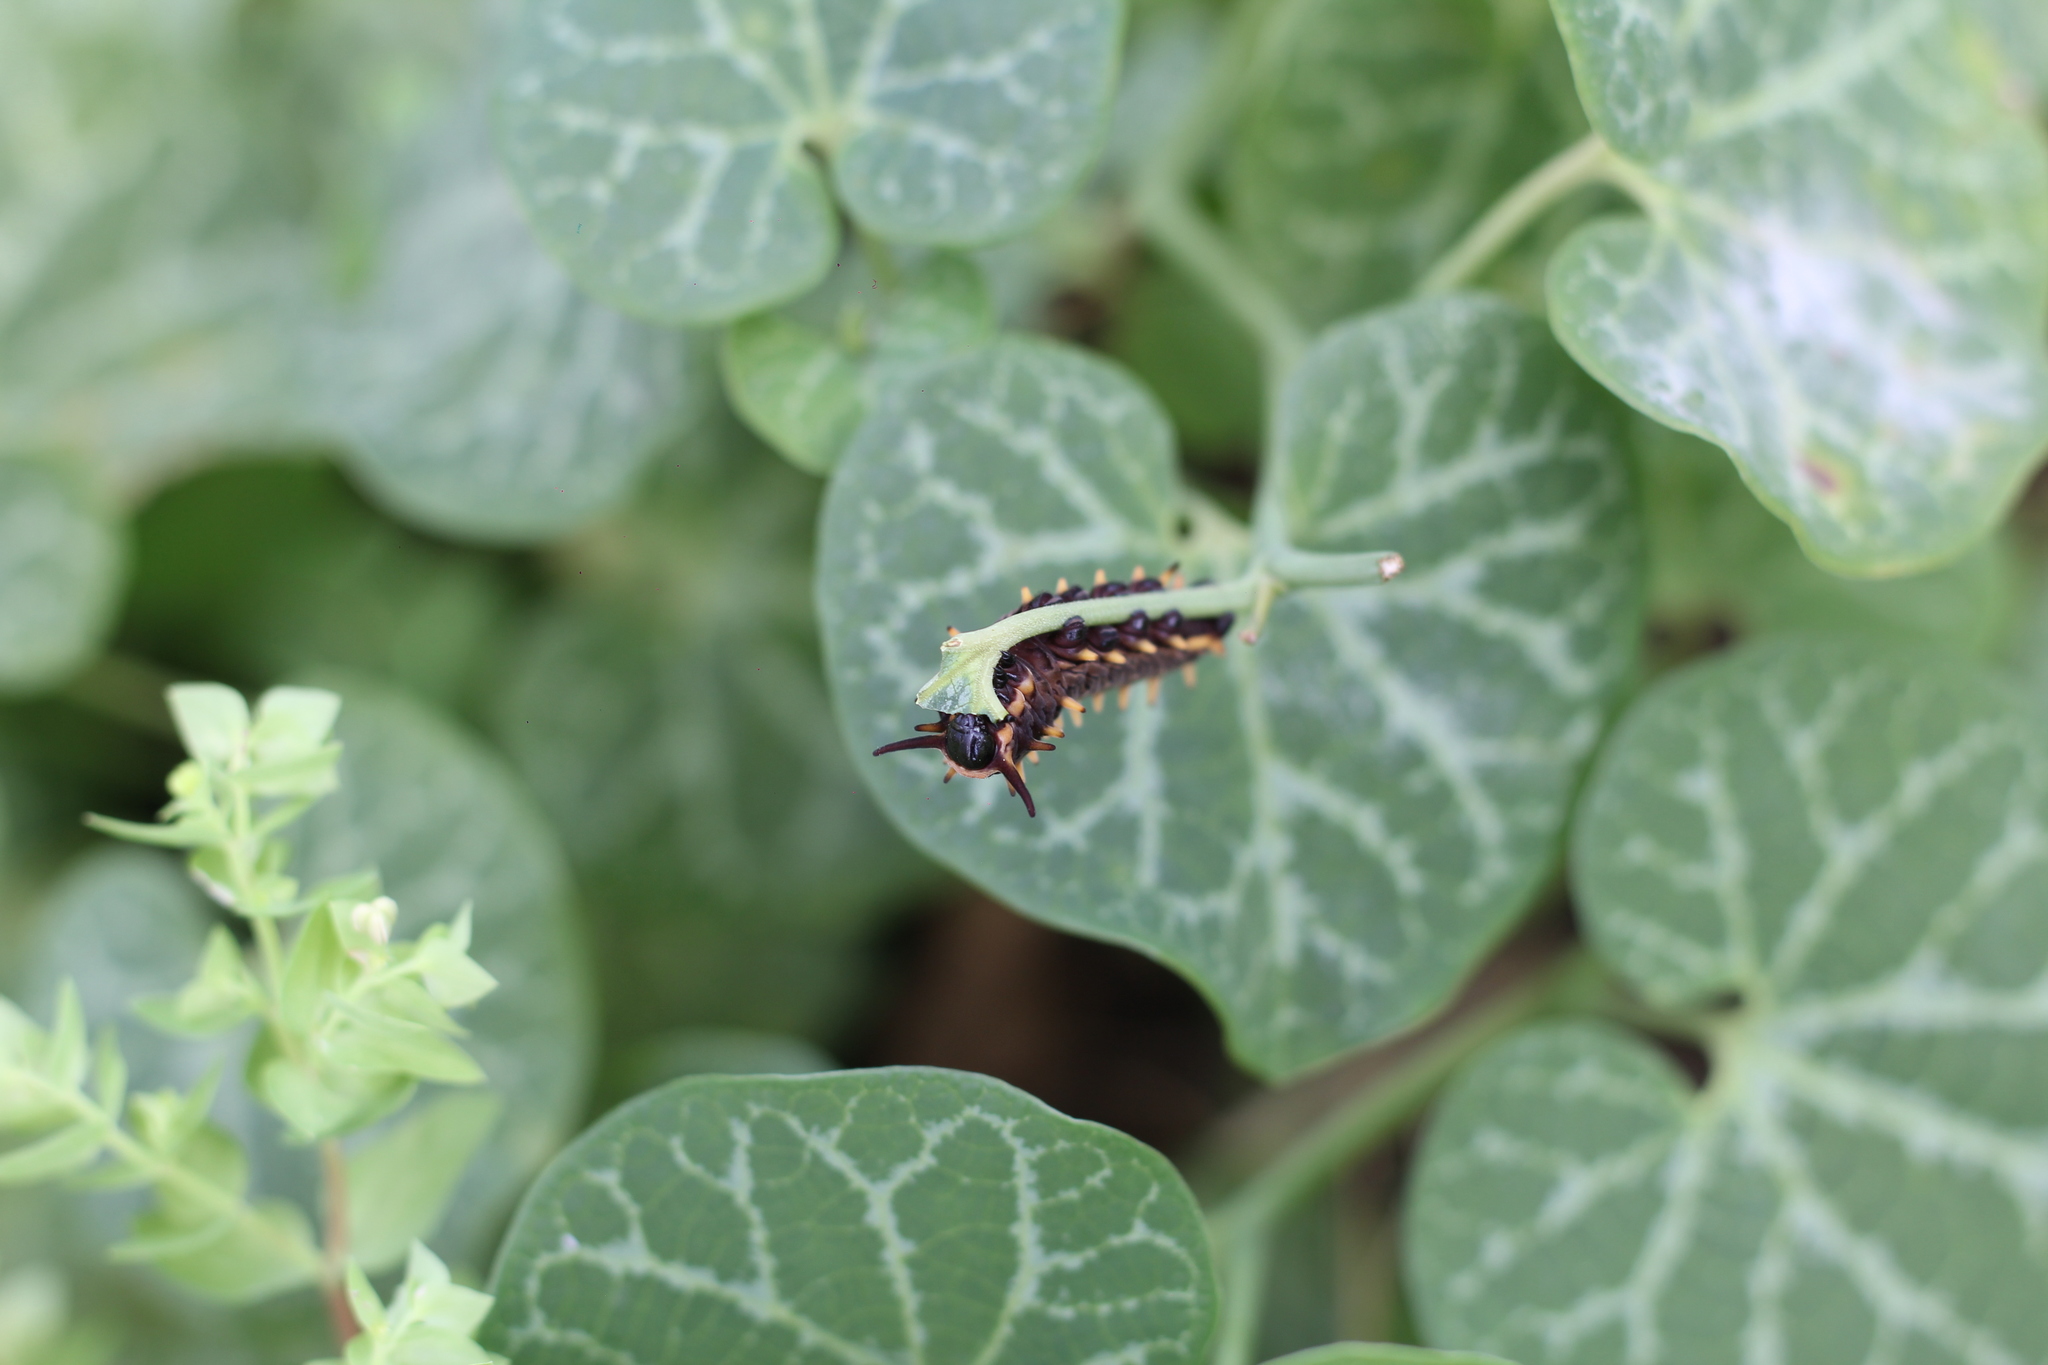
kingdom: Animalia
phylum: Arthropoda
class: Insecta
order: Lepidoptera
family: Papilionidae
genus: Battus
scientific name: Battus polydamas
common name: Polydamas swallowtail
